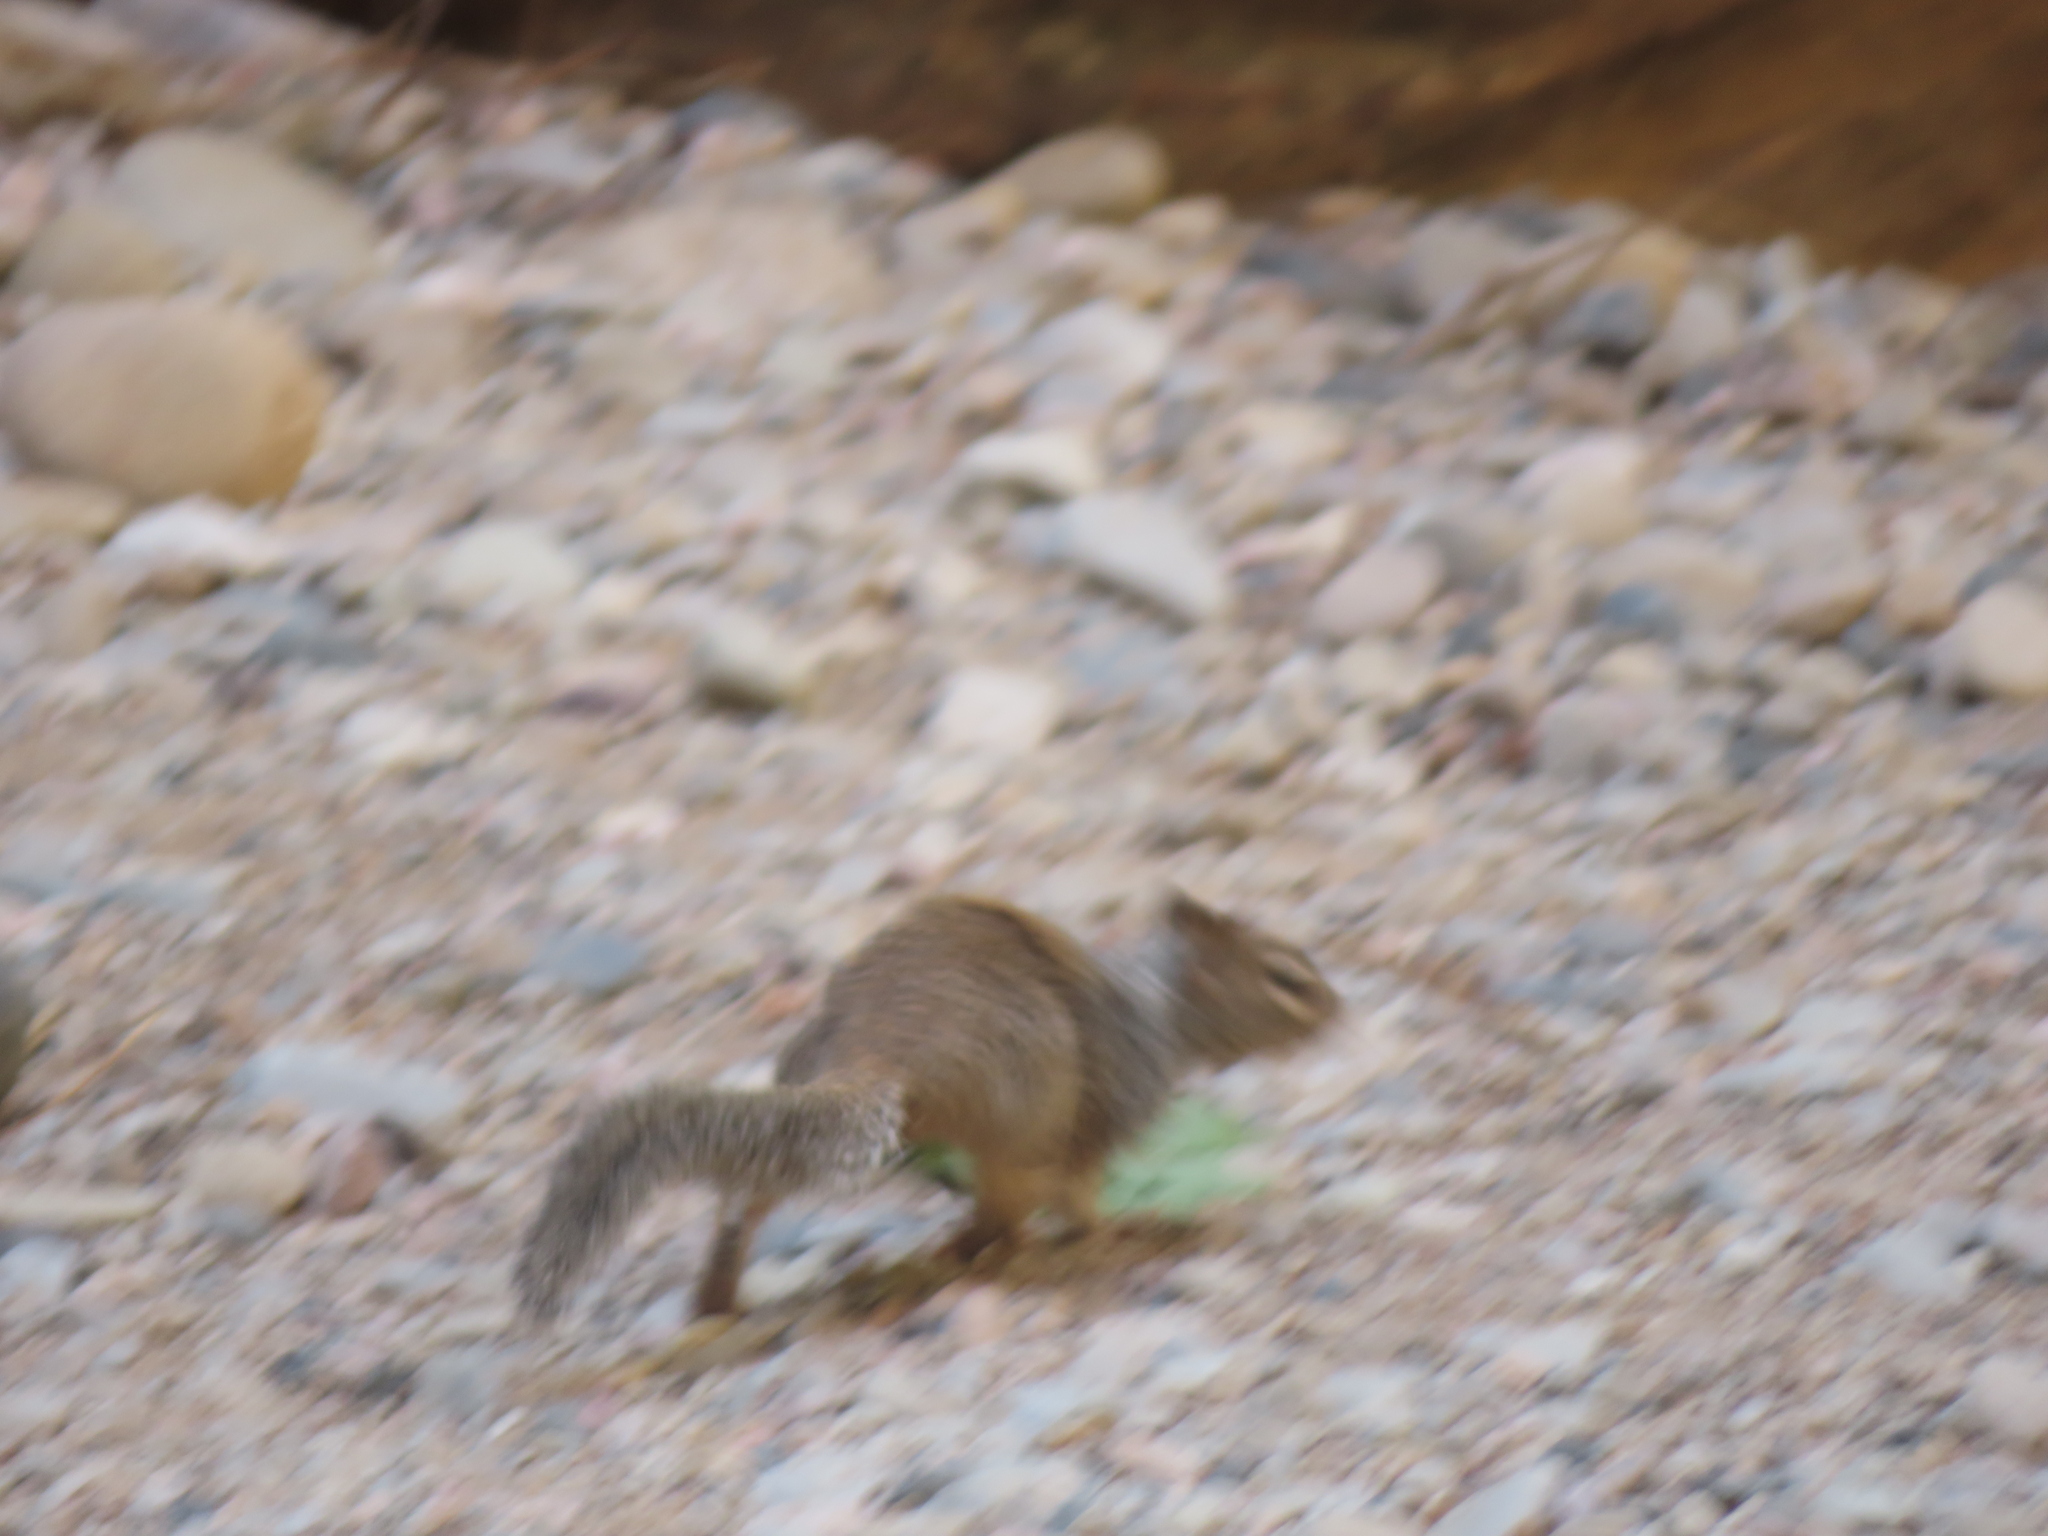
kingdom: Animalia
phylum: Chordata
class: Mammalia
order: Rodentia
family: Sciuridae
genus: Otospermophilus
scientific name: Otospermophilus variegatus
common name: Rock squirrel
